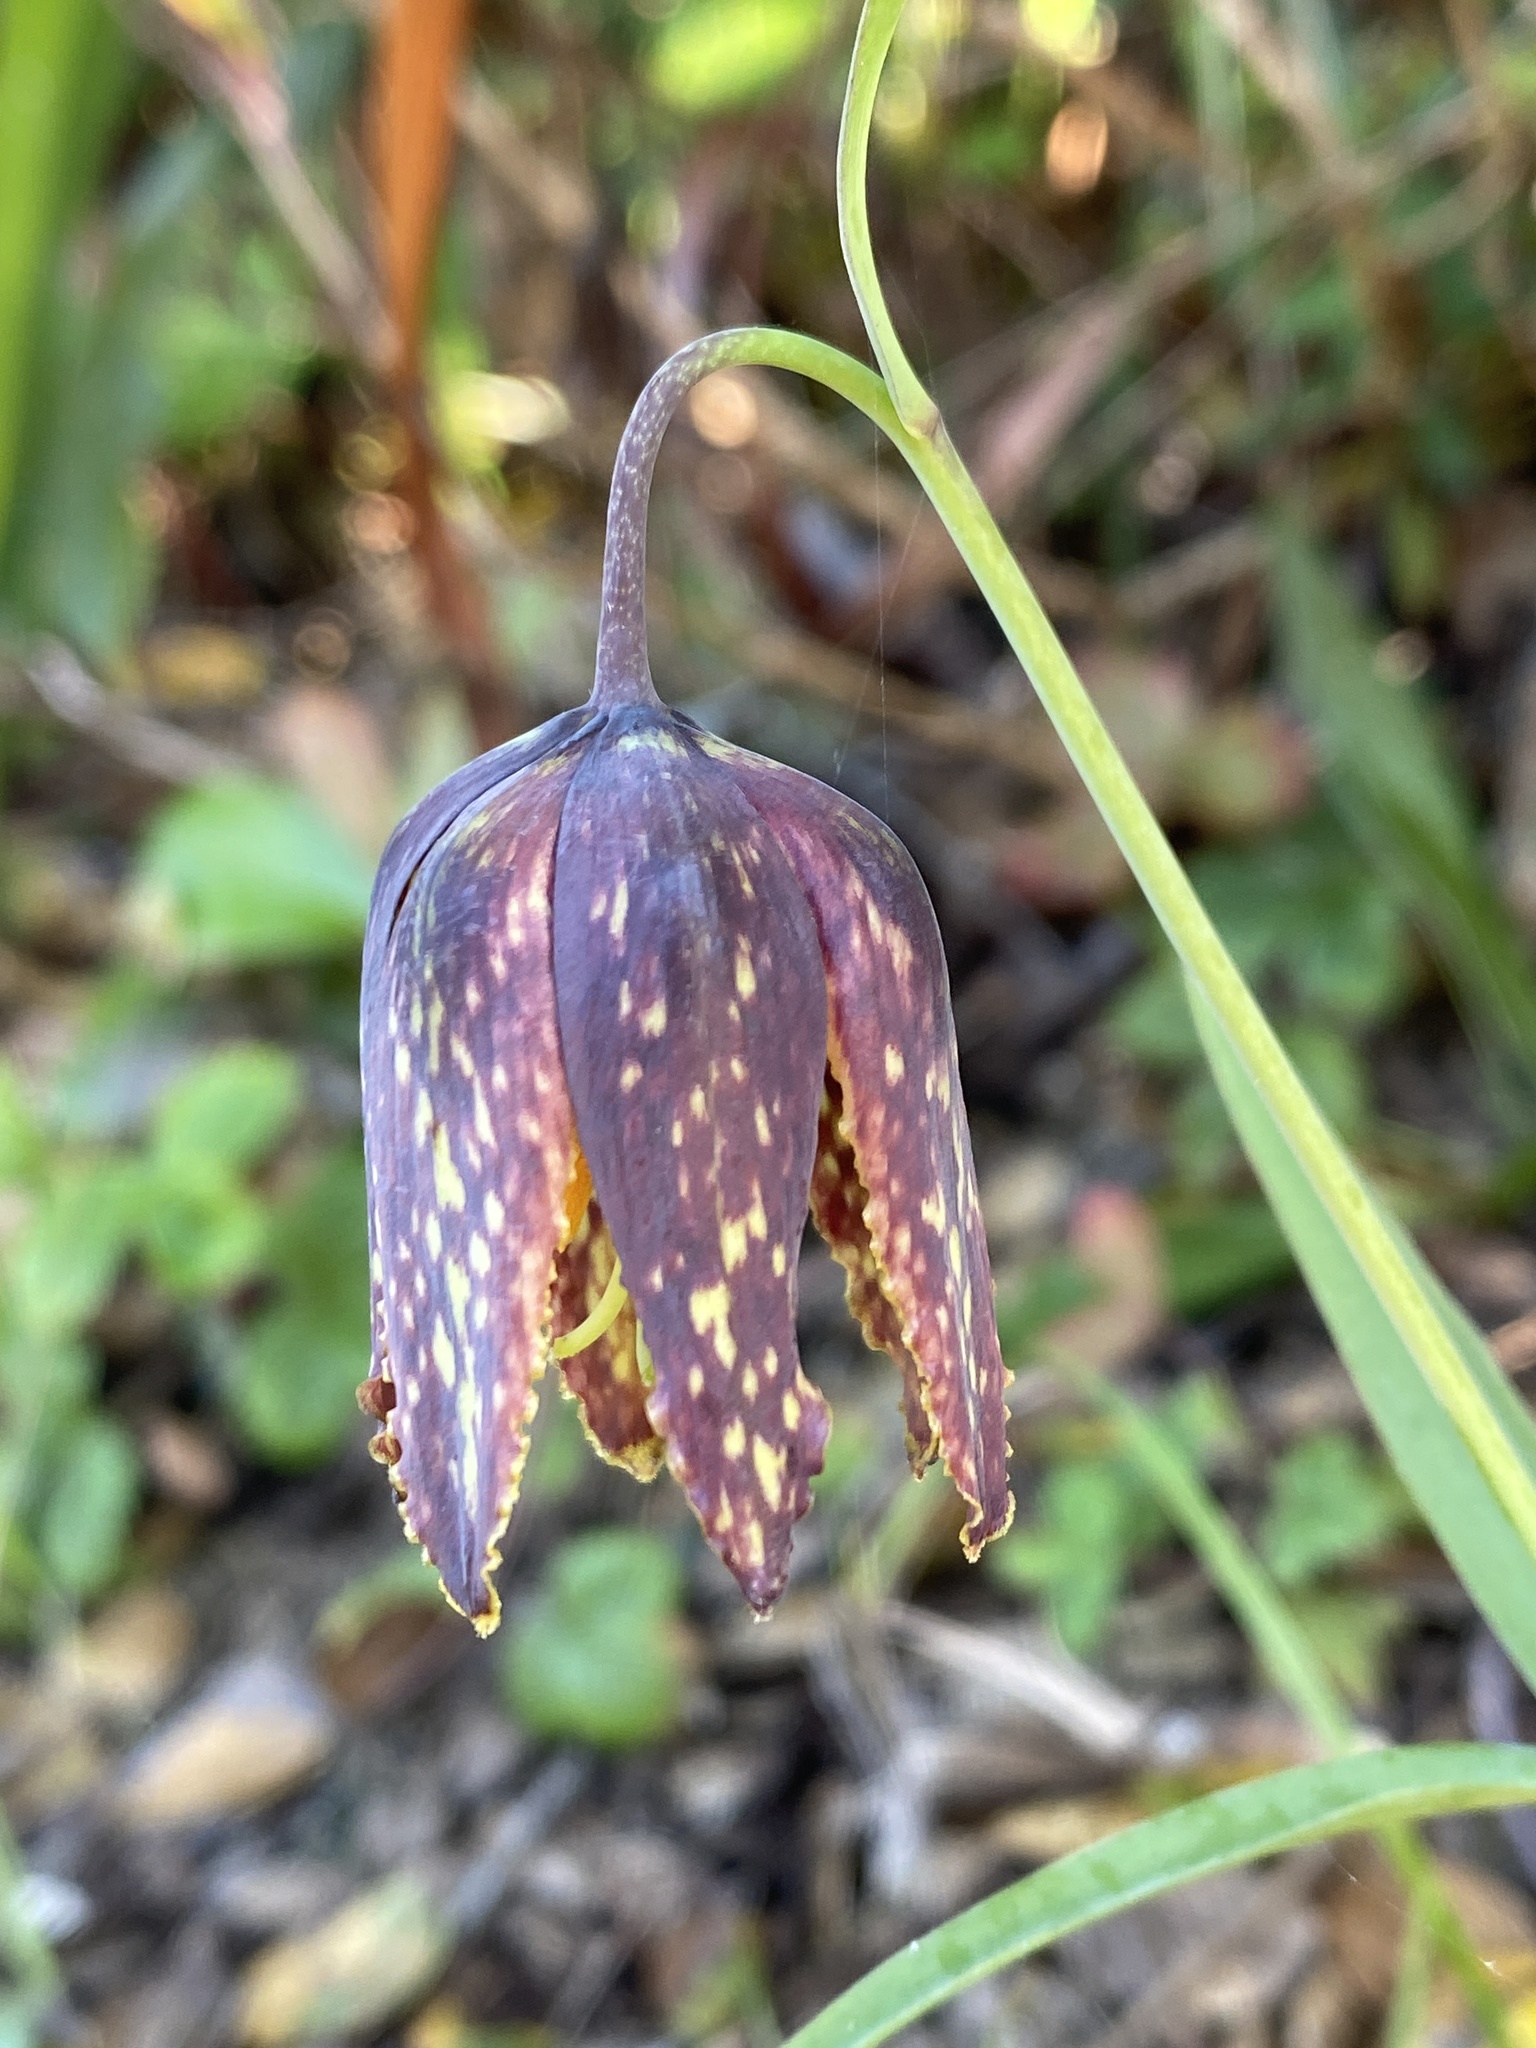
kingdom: Plantae
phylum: Tracheophyta
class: Liliopsida
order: Liliales
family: Liliaceae
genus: Fritillaria
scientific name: Fritillaria affinis
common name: Ojai fritillary
